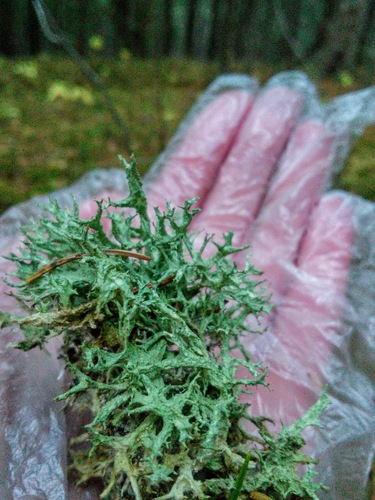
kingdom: Fungi
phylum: Ascomycota
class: Lecanoromycetes
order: Lecanorales
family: Parmeliaceae
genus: Evernia
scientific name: Evernia mesomorpha
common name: Boreal oak moss lichen
